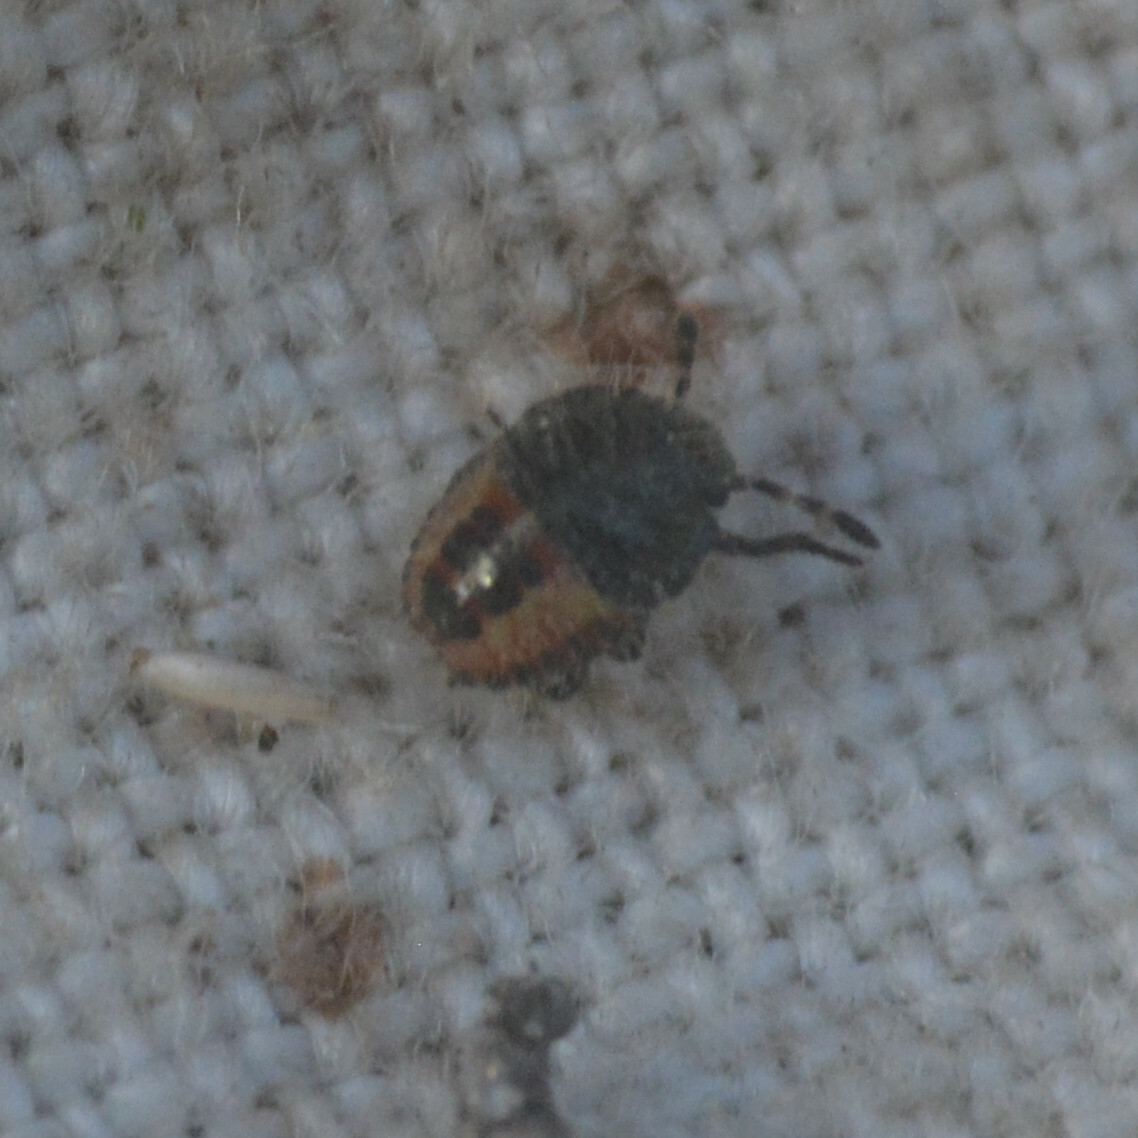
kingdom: Animalia
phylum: Arthropoda
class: Insecta
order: Hemiptera
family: Pentatomidae
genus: Dolycoris
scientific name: Dolycoris baccarum
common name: Sloe bug
